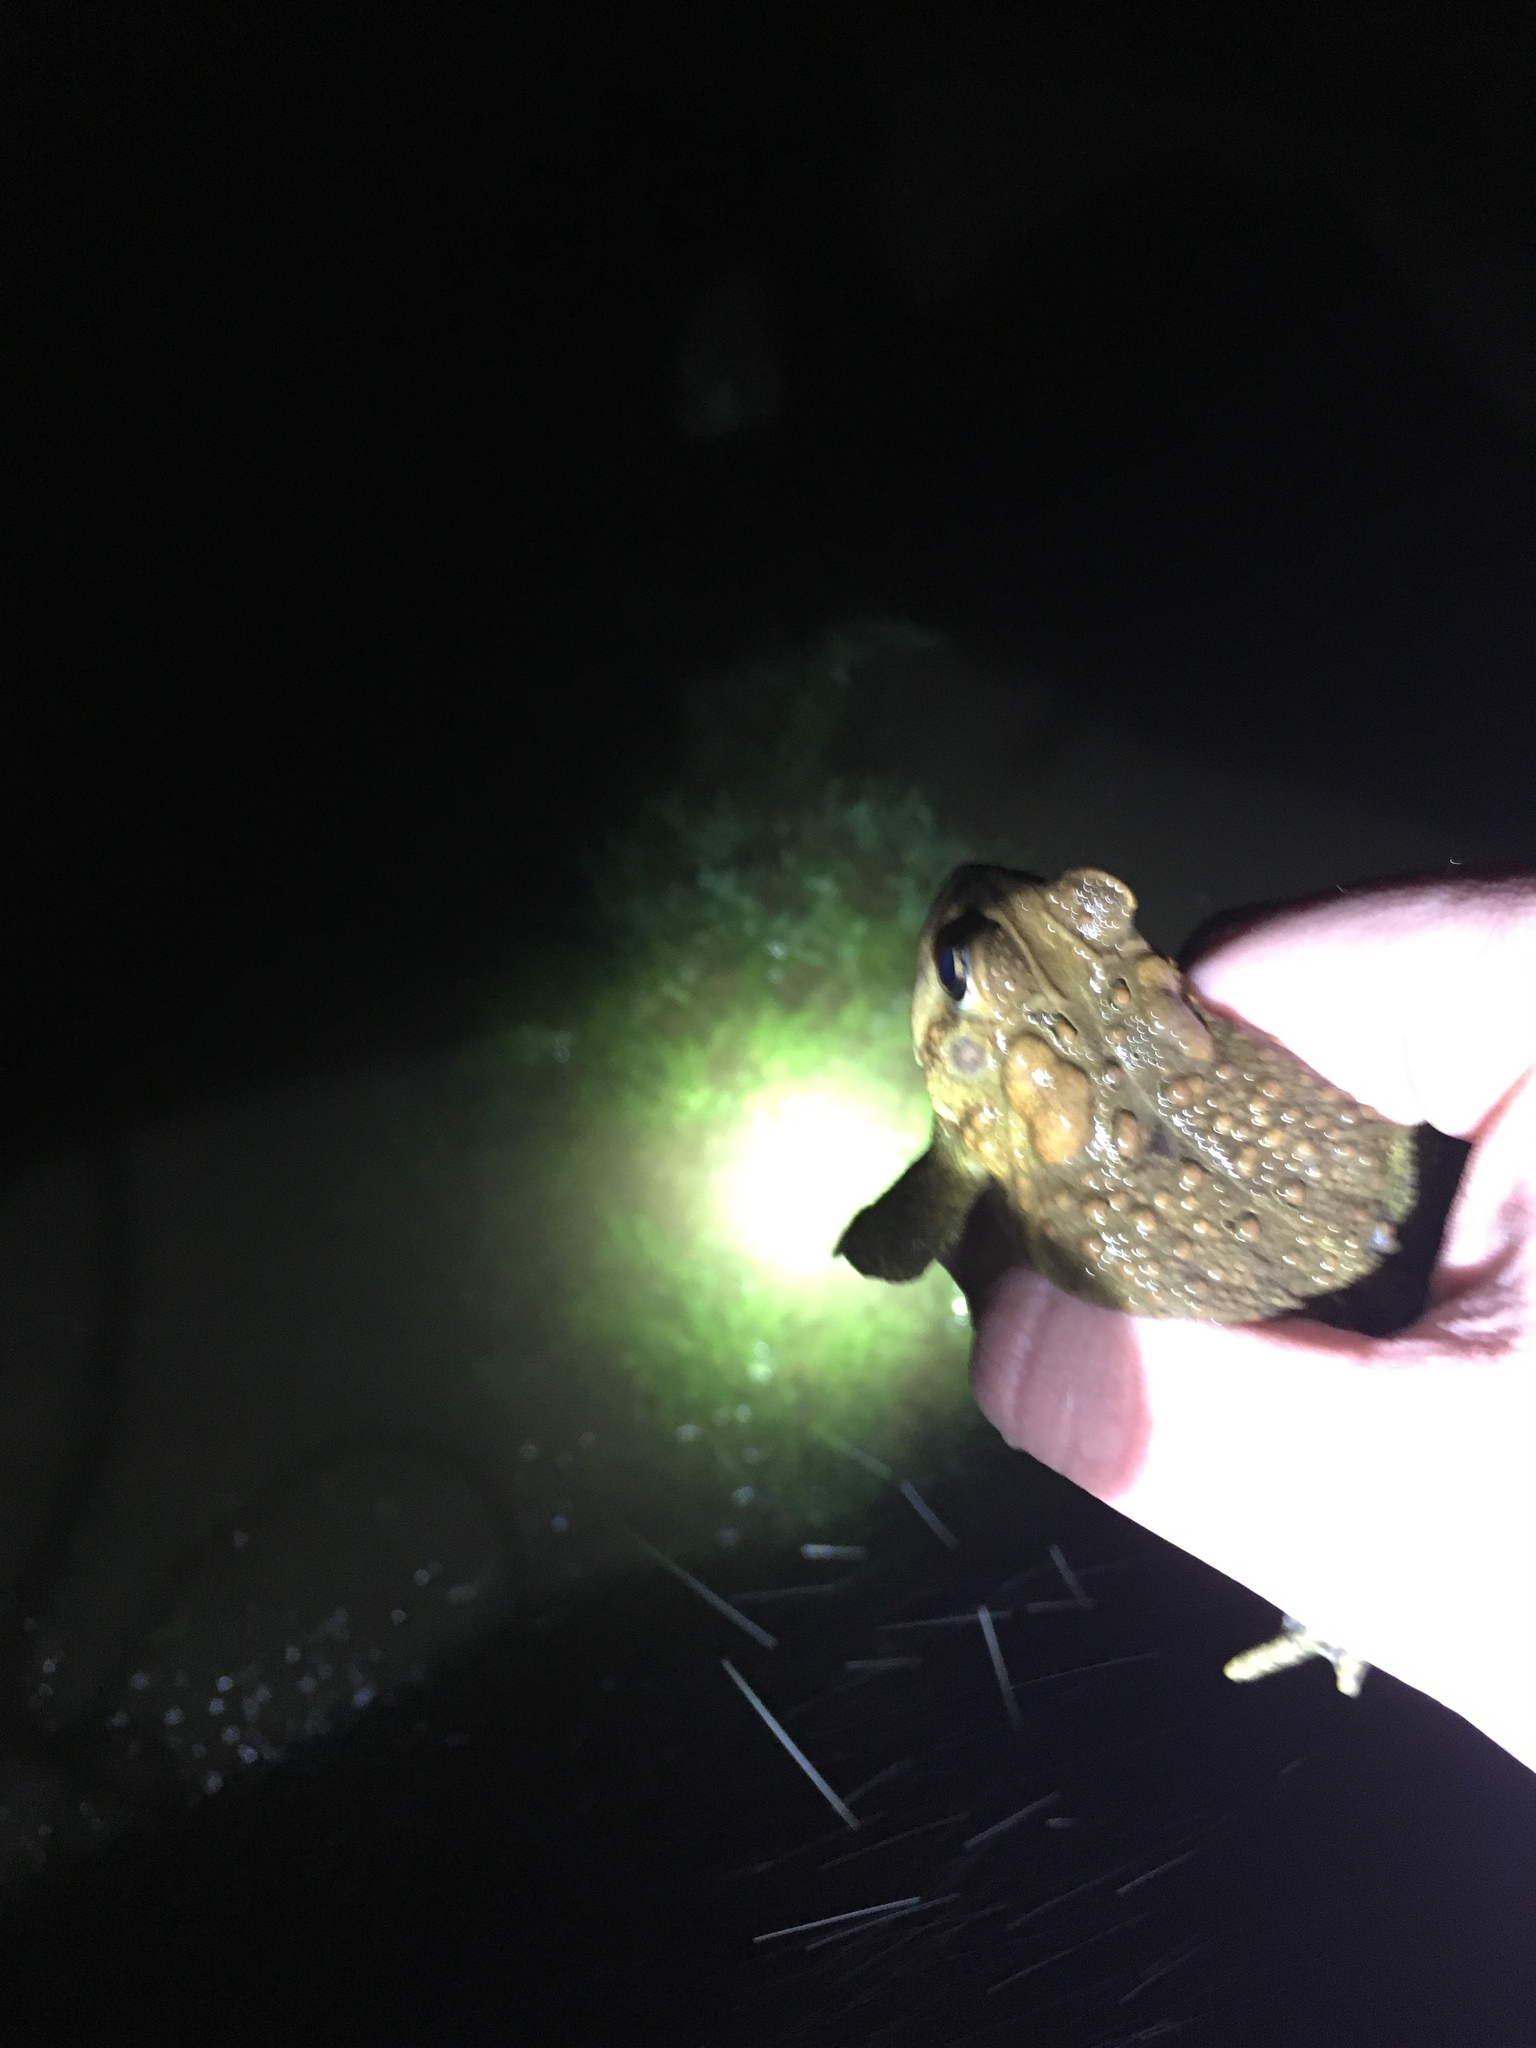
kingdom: Animalia
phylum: Chordata
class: Amphibia
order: Anura
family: Bufonidae
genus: Anaxyrus
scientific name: Anaxyrus americanus
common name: American toad
